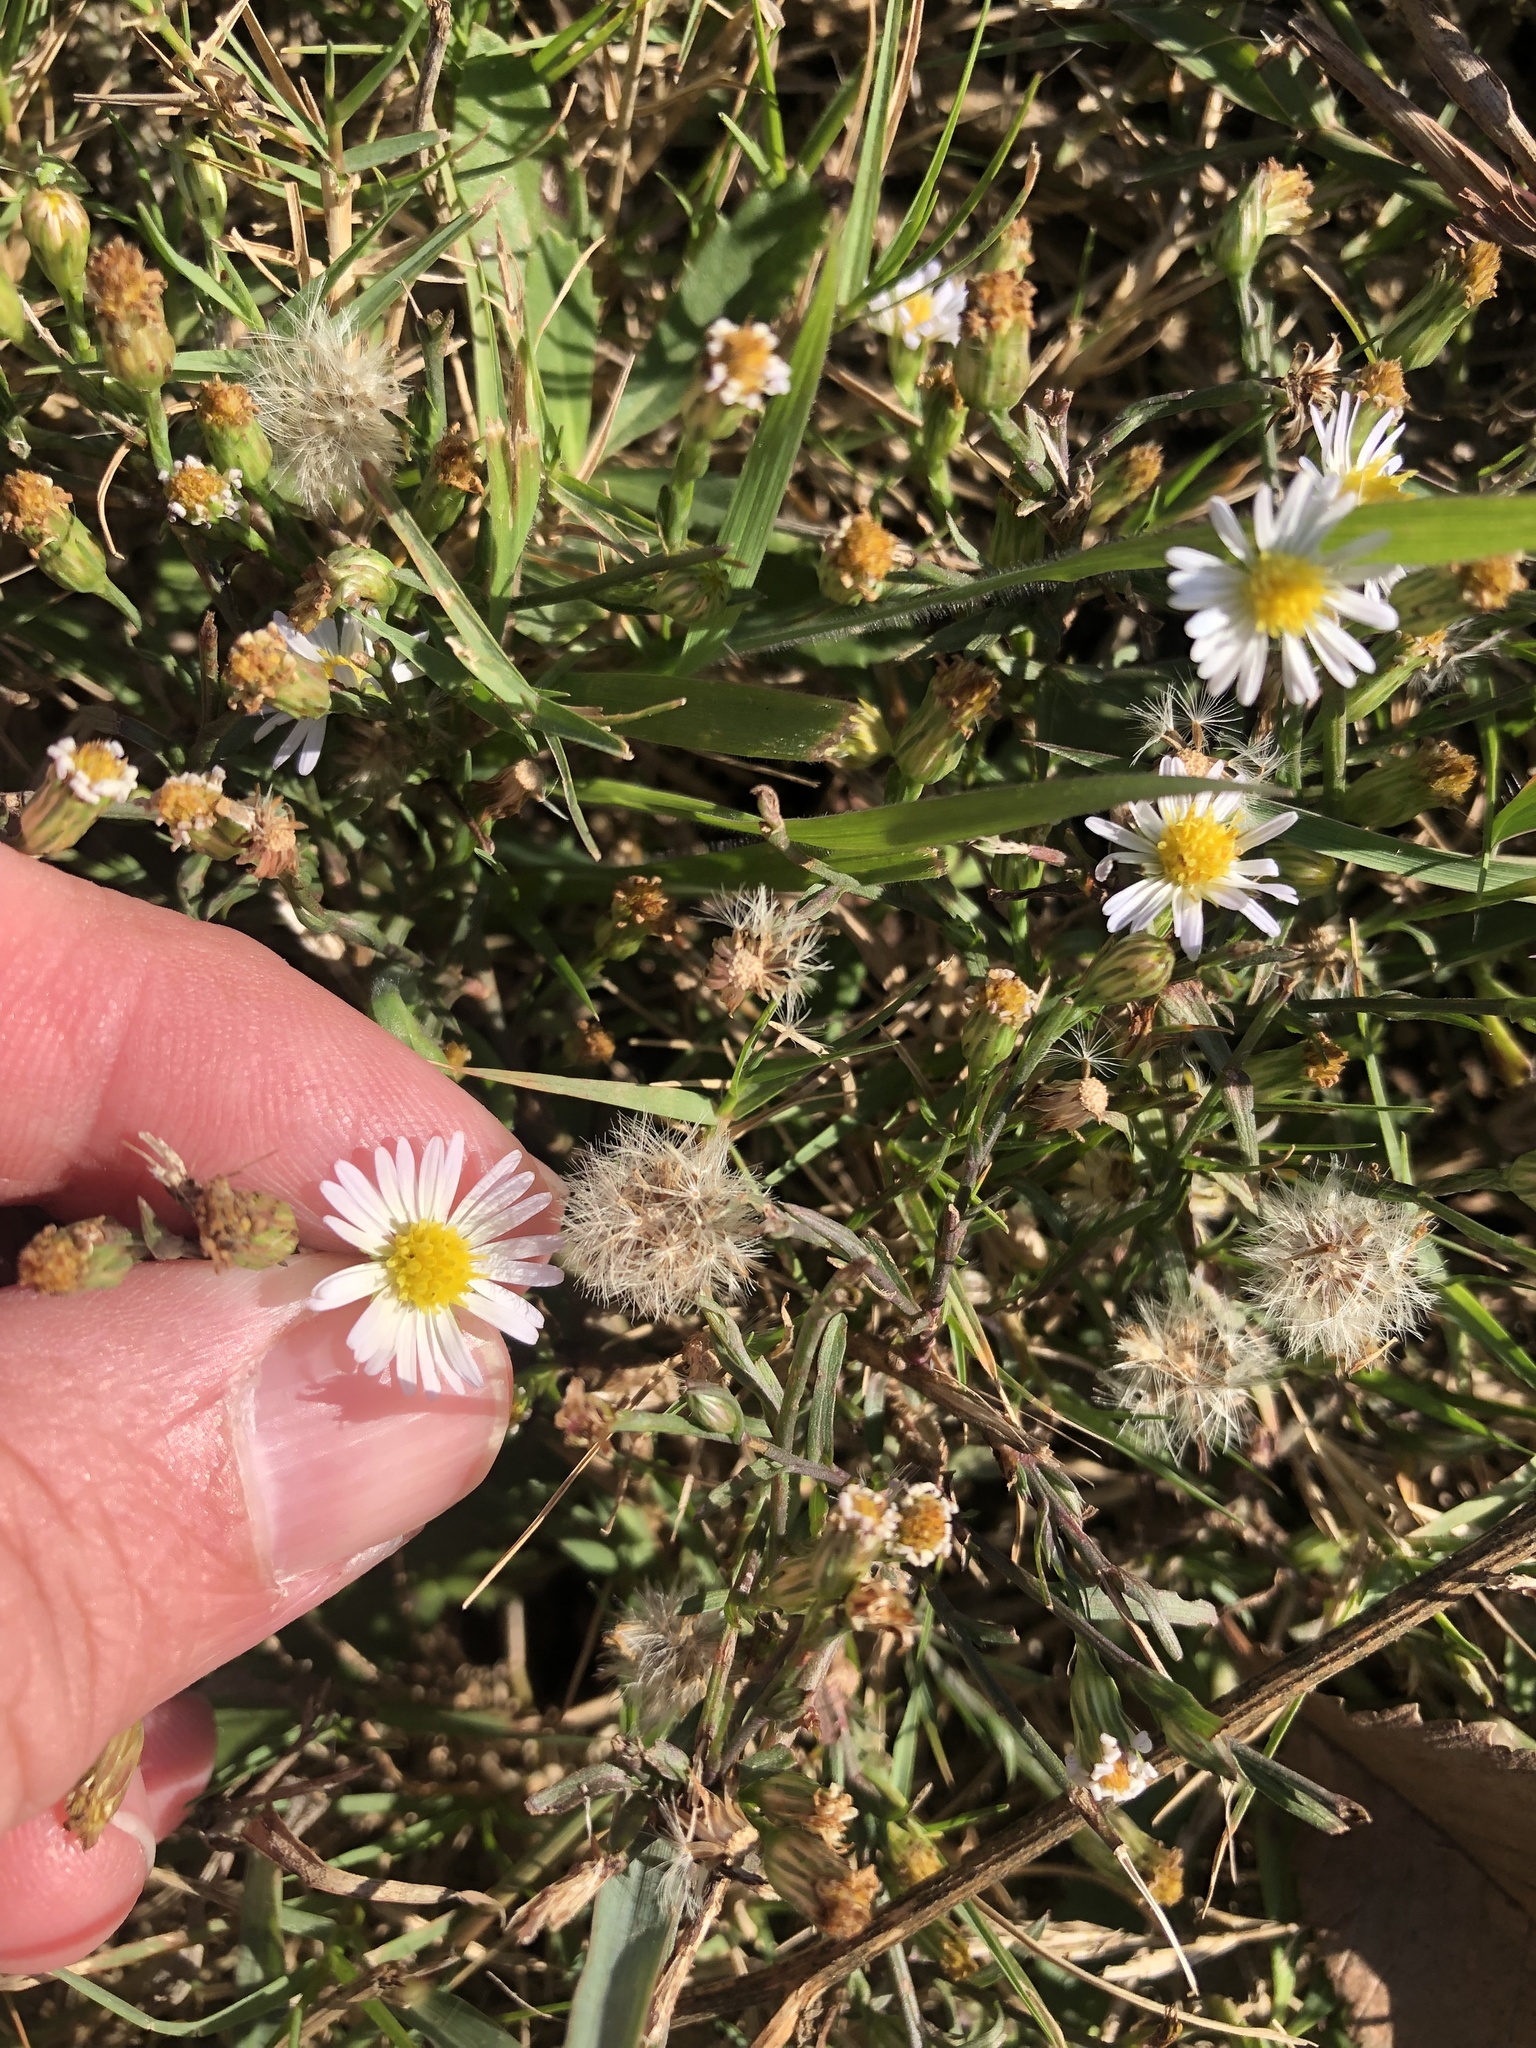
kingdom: Plantae
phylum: Tracheophyta
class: Magnoliopsida
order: Asterales
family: Asteraceae
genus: Symphyotrichum
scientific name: Symphyotrichum divaricatum
